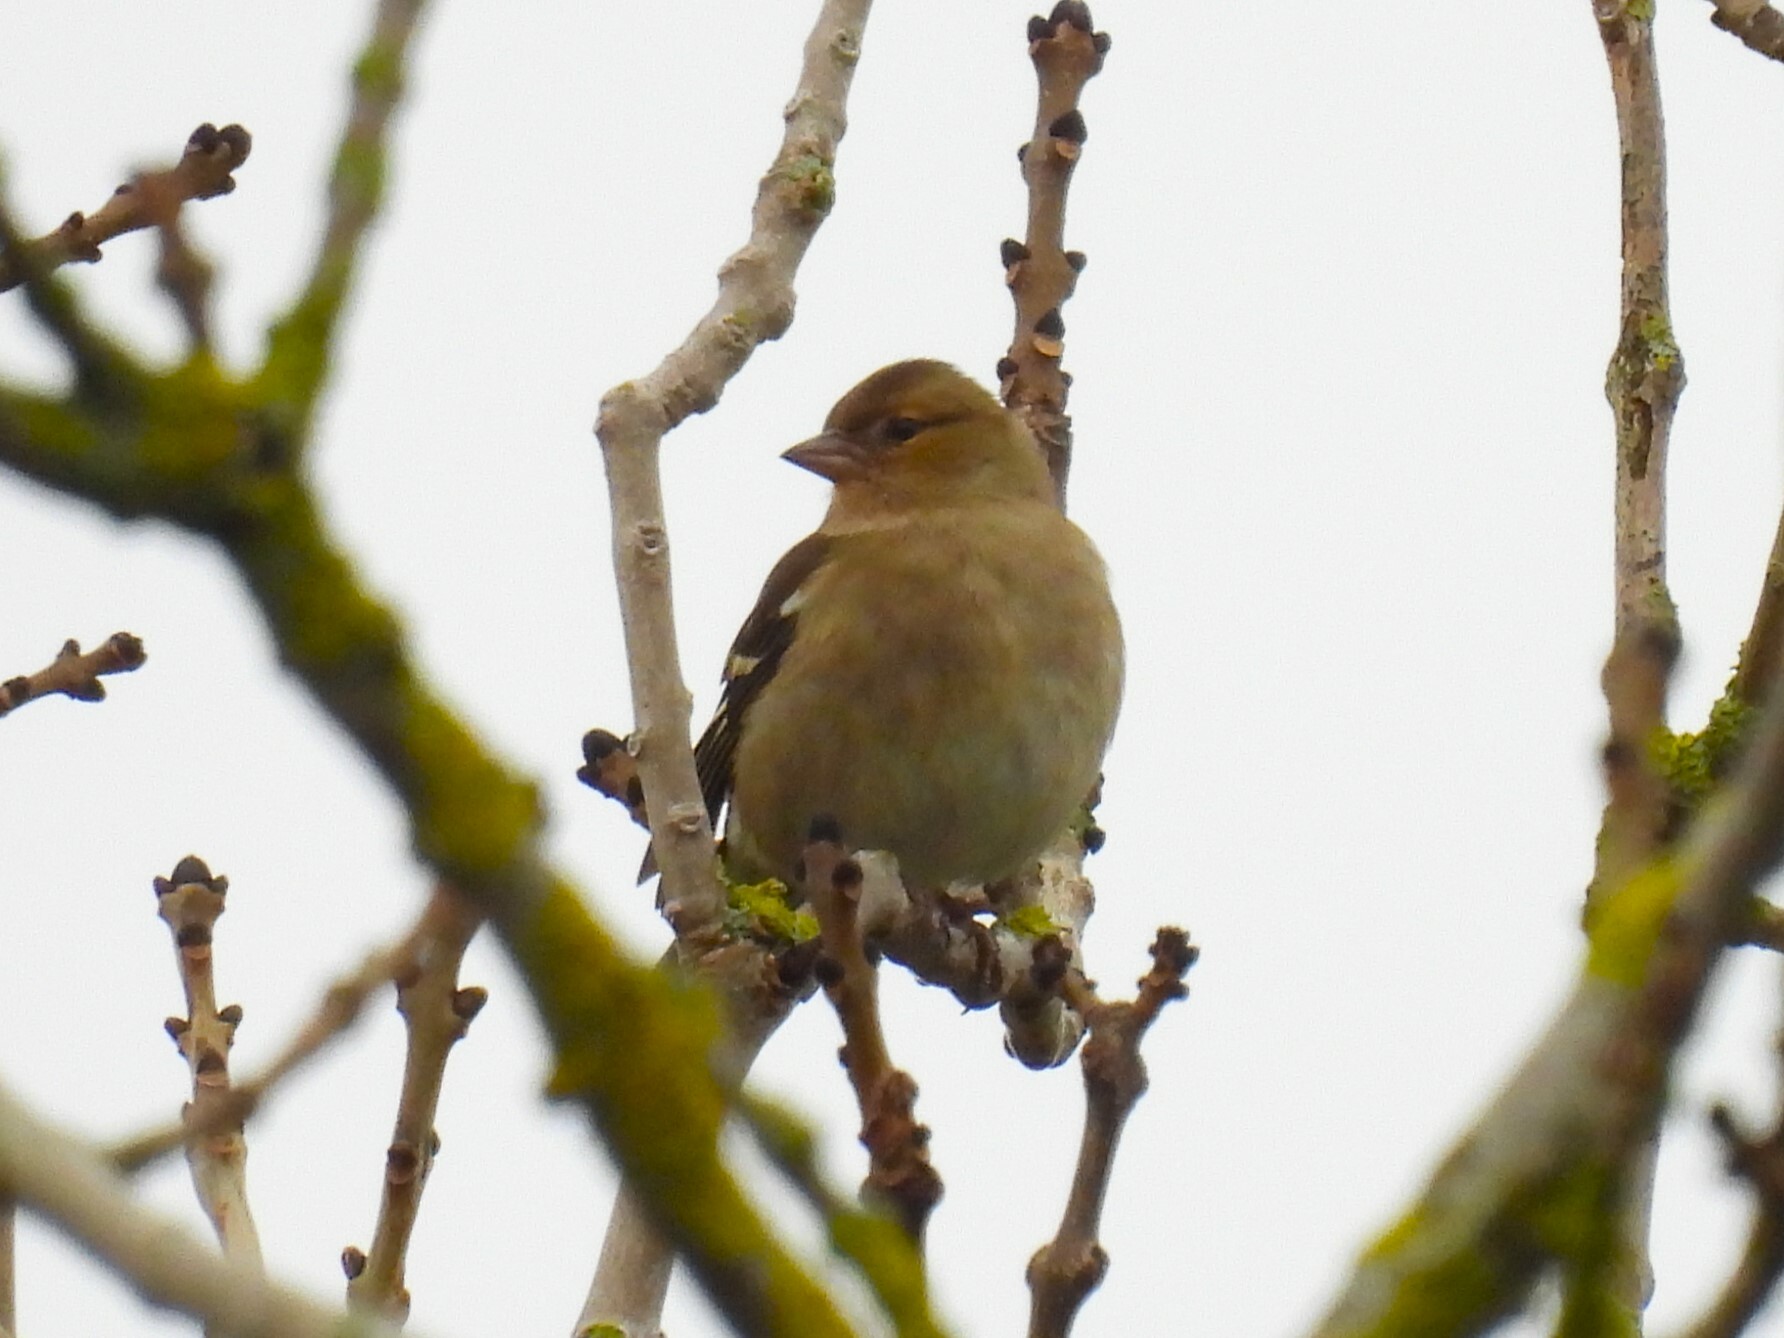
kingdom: Animalia
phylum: Chordata
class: Aves
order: Passeriformes
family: Fringillidae
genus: Fringilla
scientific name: Fringilla coelebs
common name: Common chaffinch
